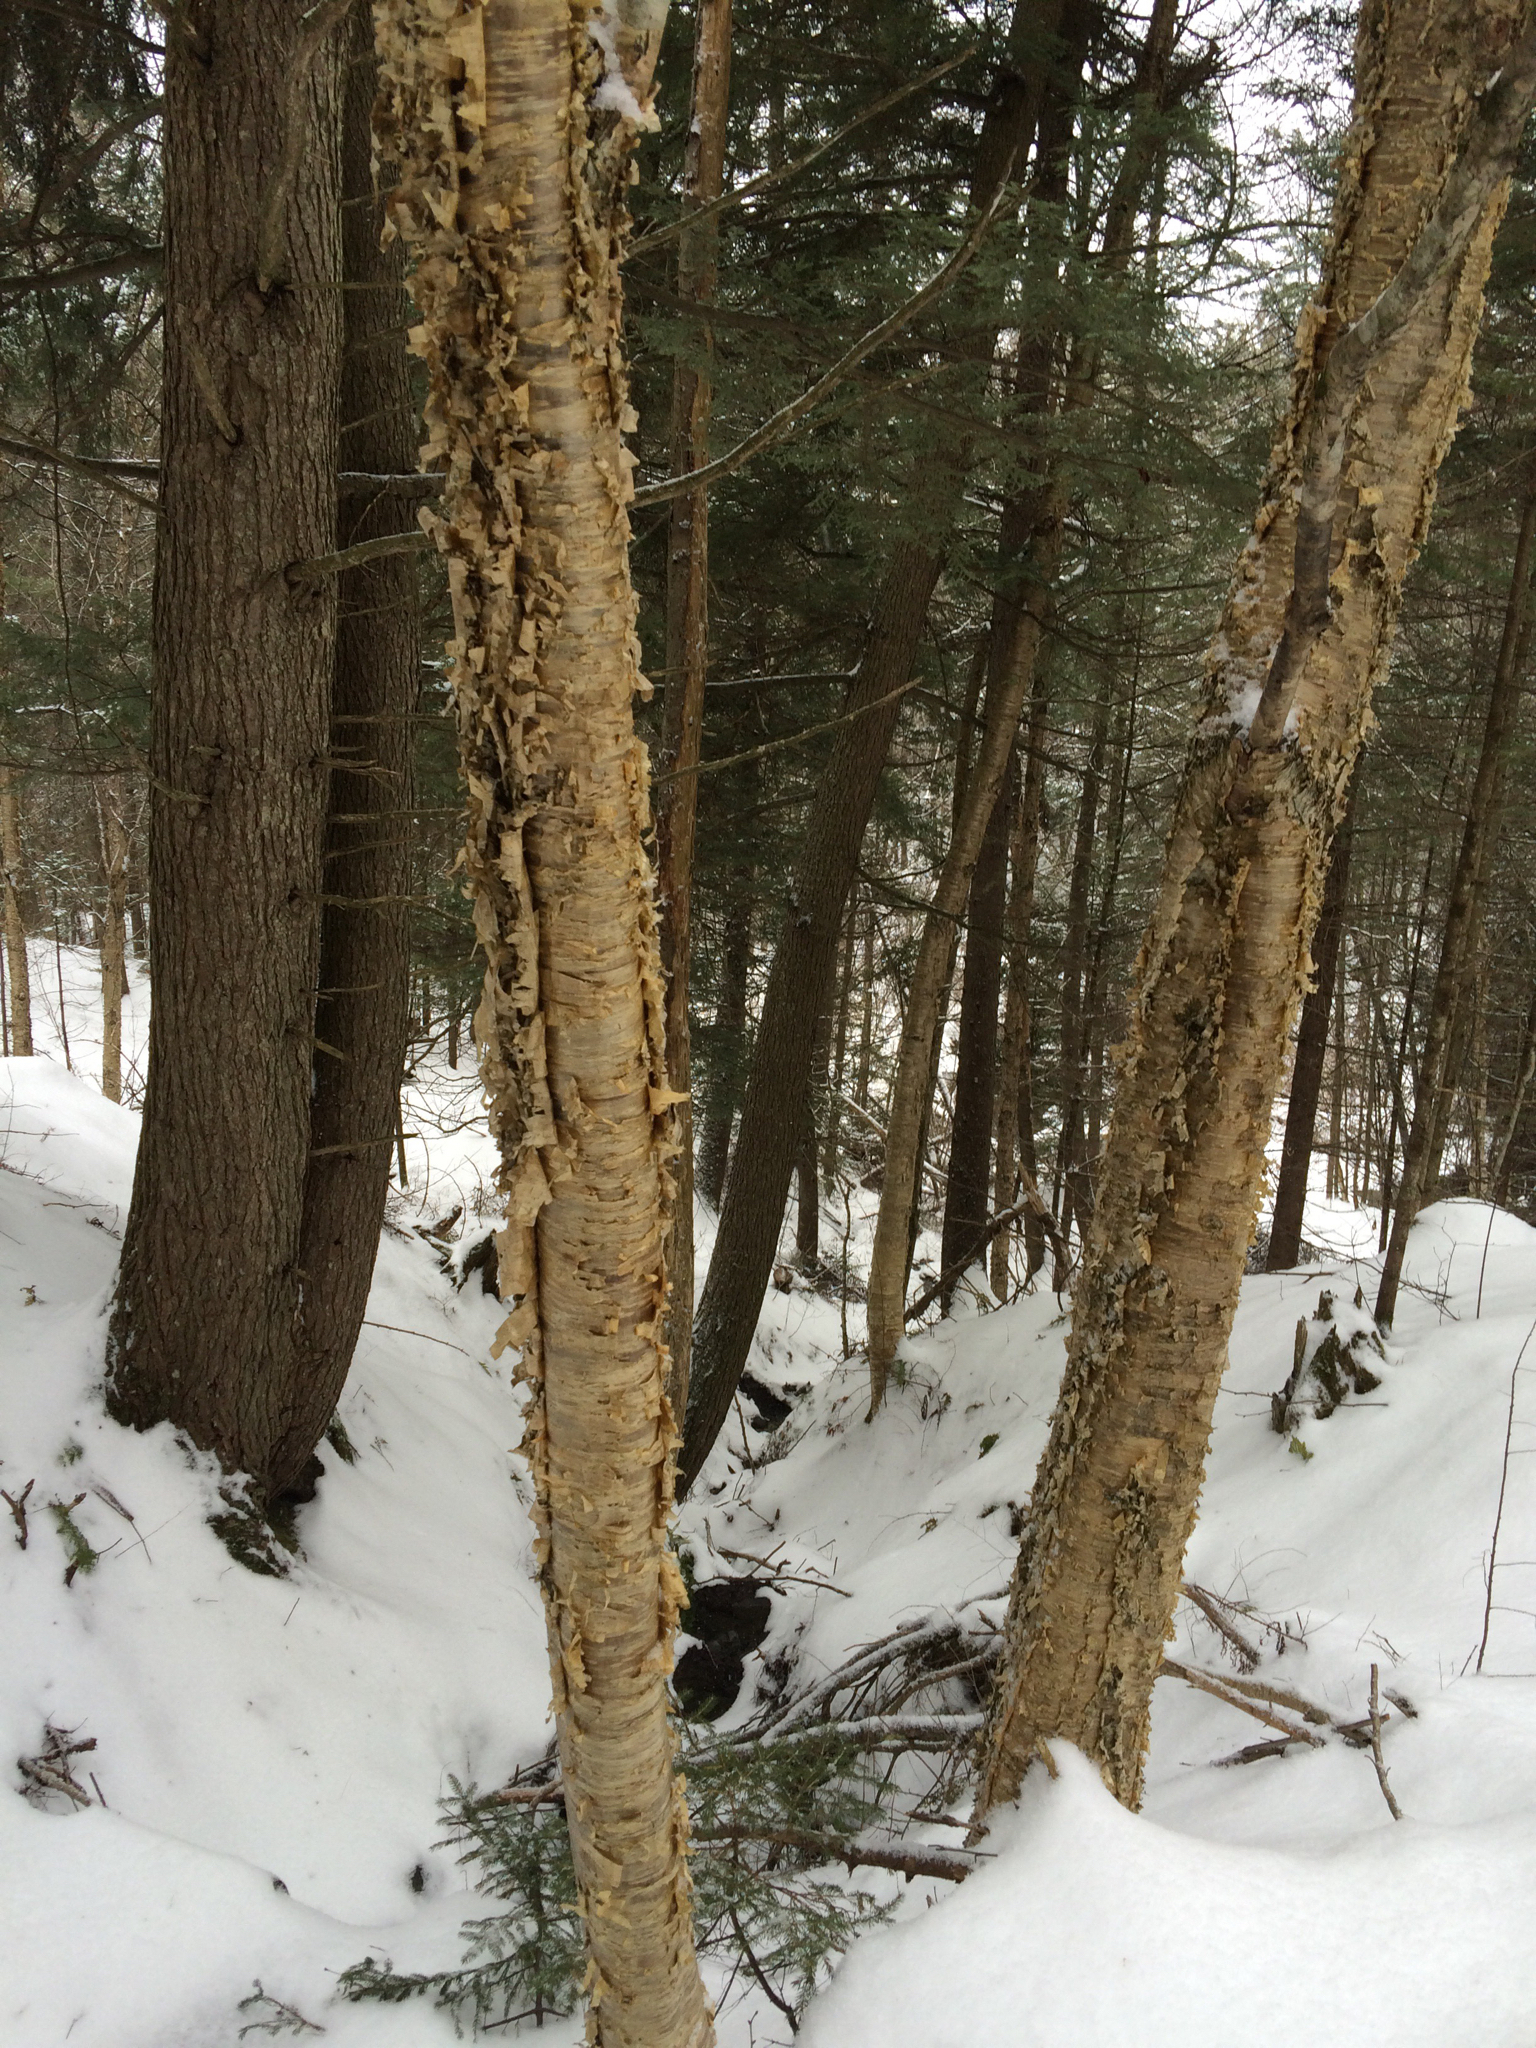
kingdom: Plantae
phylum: Tracheophyta
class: Magnoliopsida
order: Fagales
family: Betulaceae
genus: Betula
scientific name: Betula alleghaniensis
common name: Yellow birch
